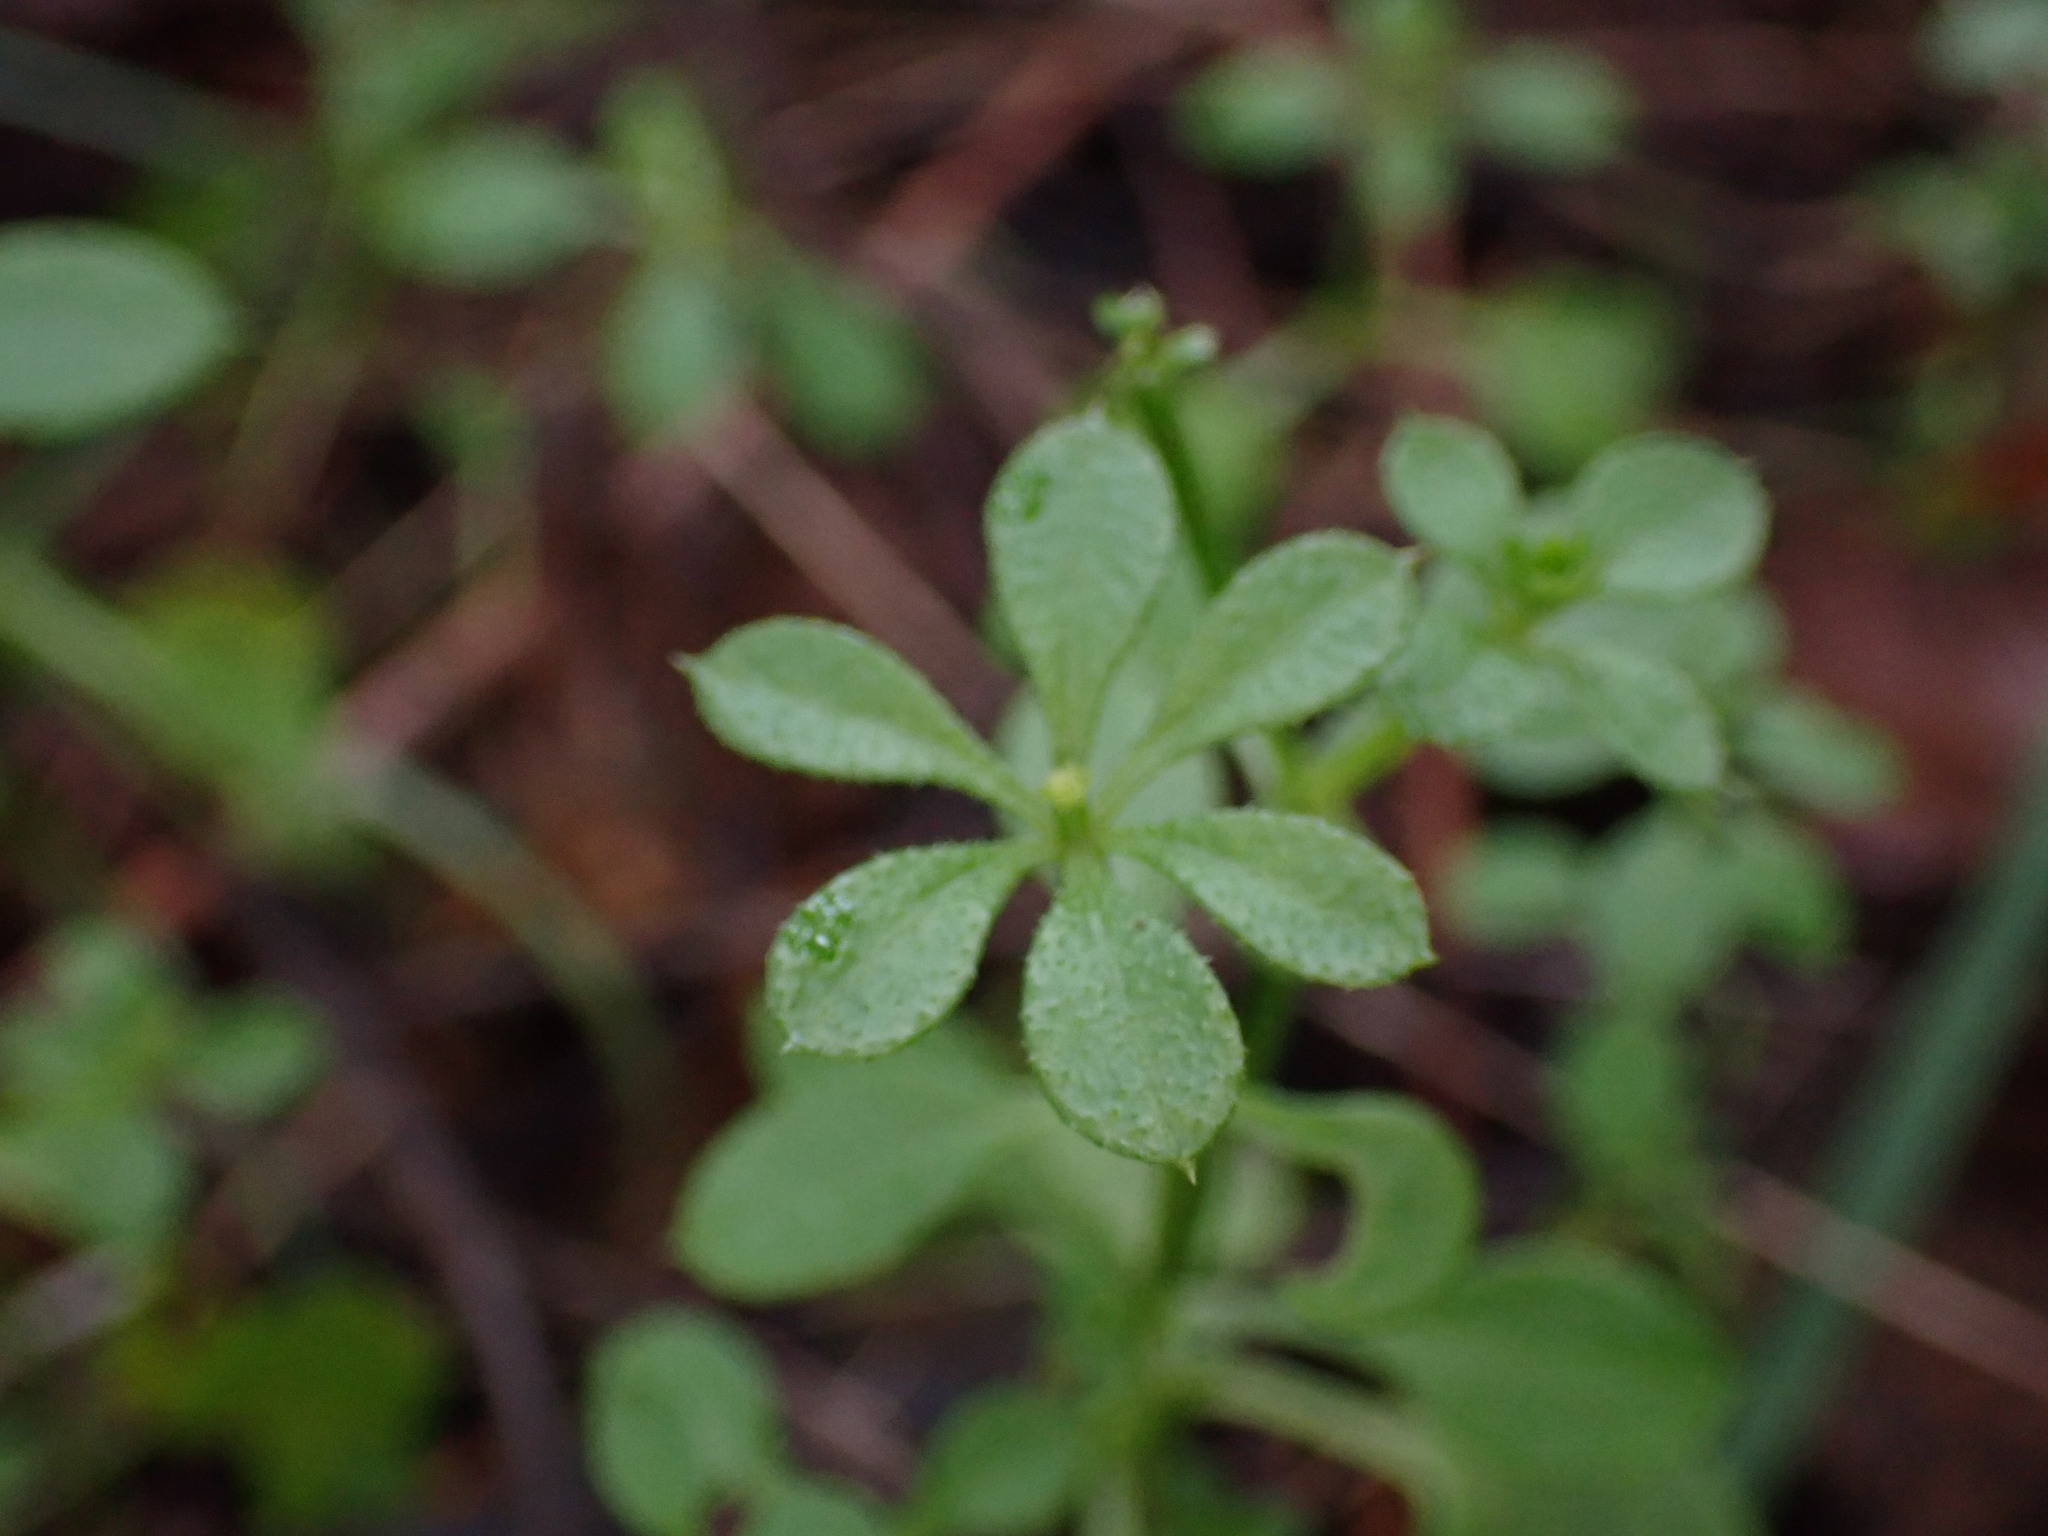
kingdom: Plantae
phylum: Tracheophyta
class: Magnoliopsida
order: Gentianales
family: Rubiaceae
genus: Galium
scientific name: Galium aparine
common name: Cleavers
